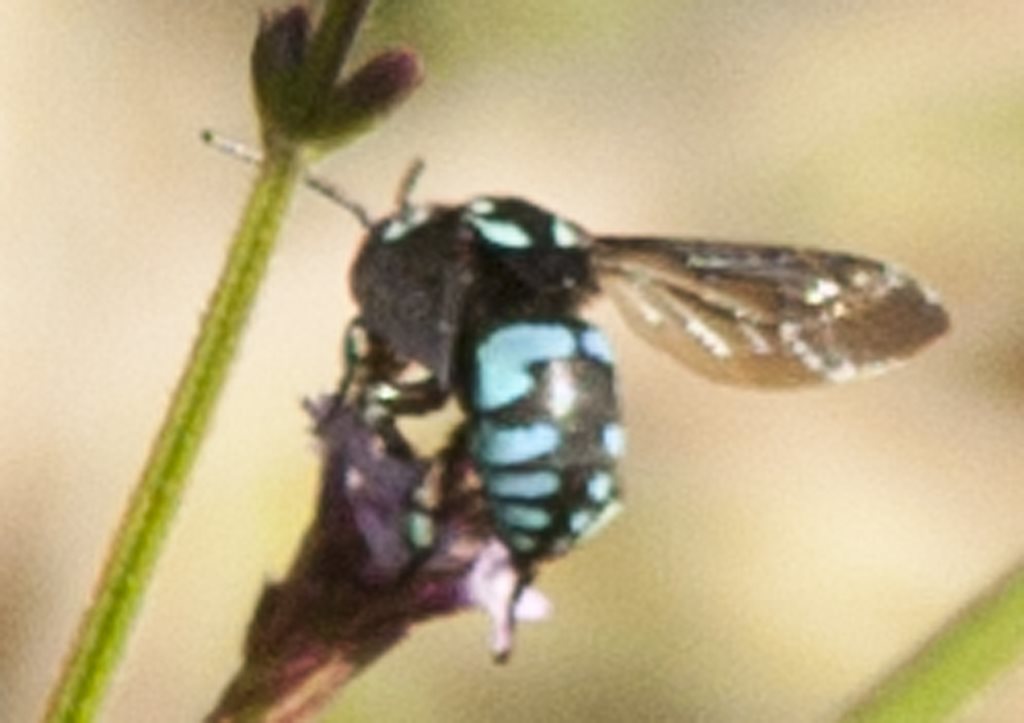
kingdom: Animalia
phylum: Arthropoda
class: Insecta
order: Hymenoptera
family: Apidae
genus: Thyreus
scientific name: Thyreus nitidulus
